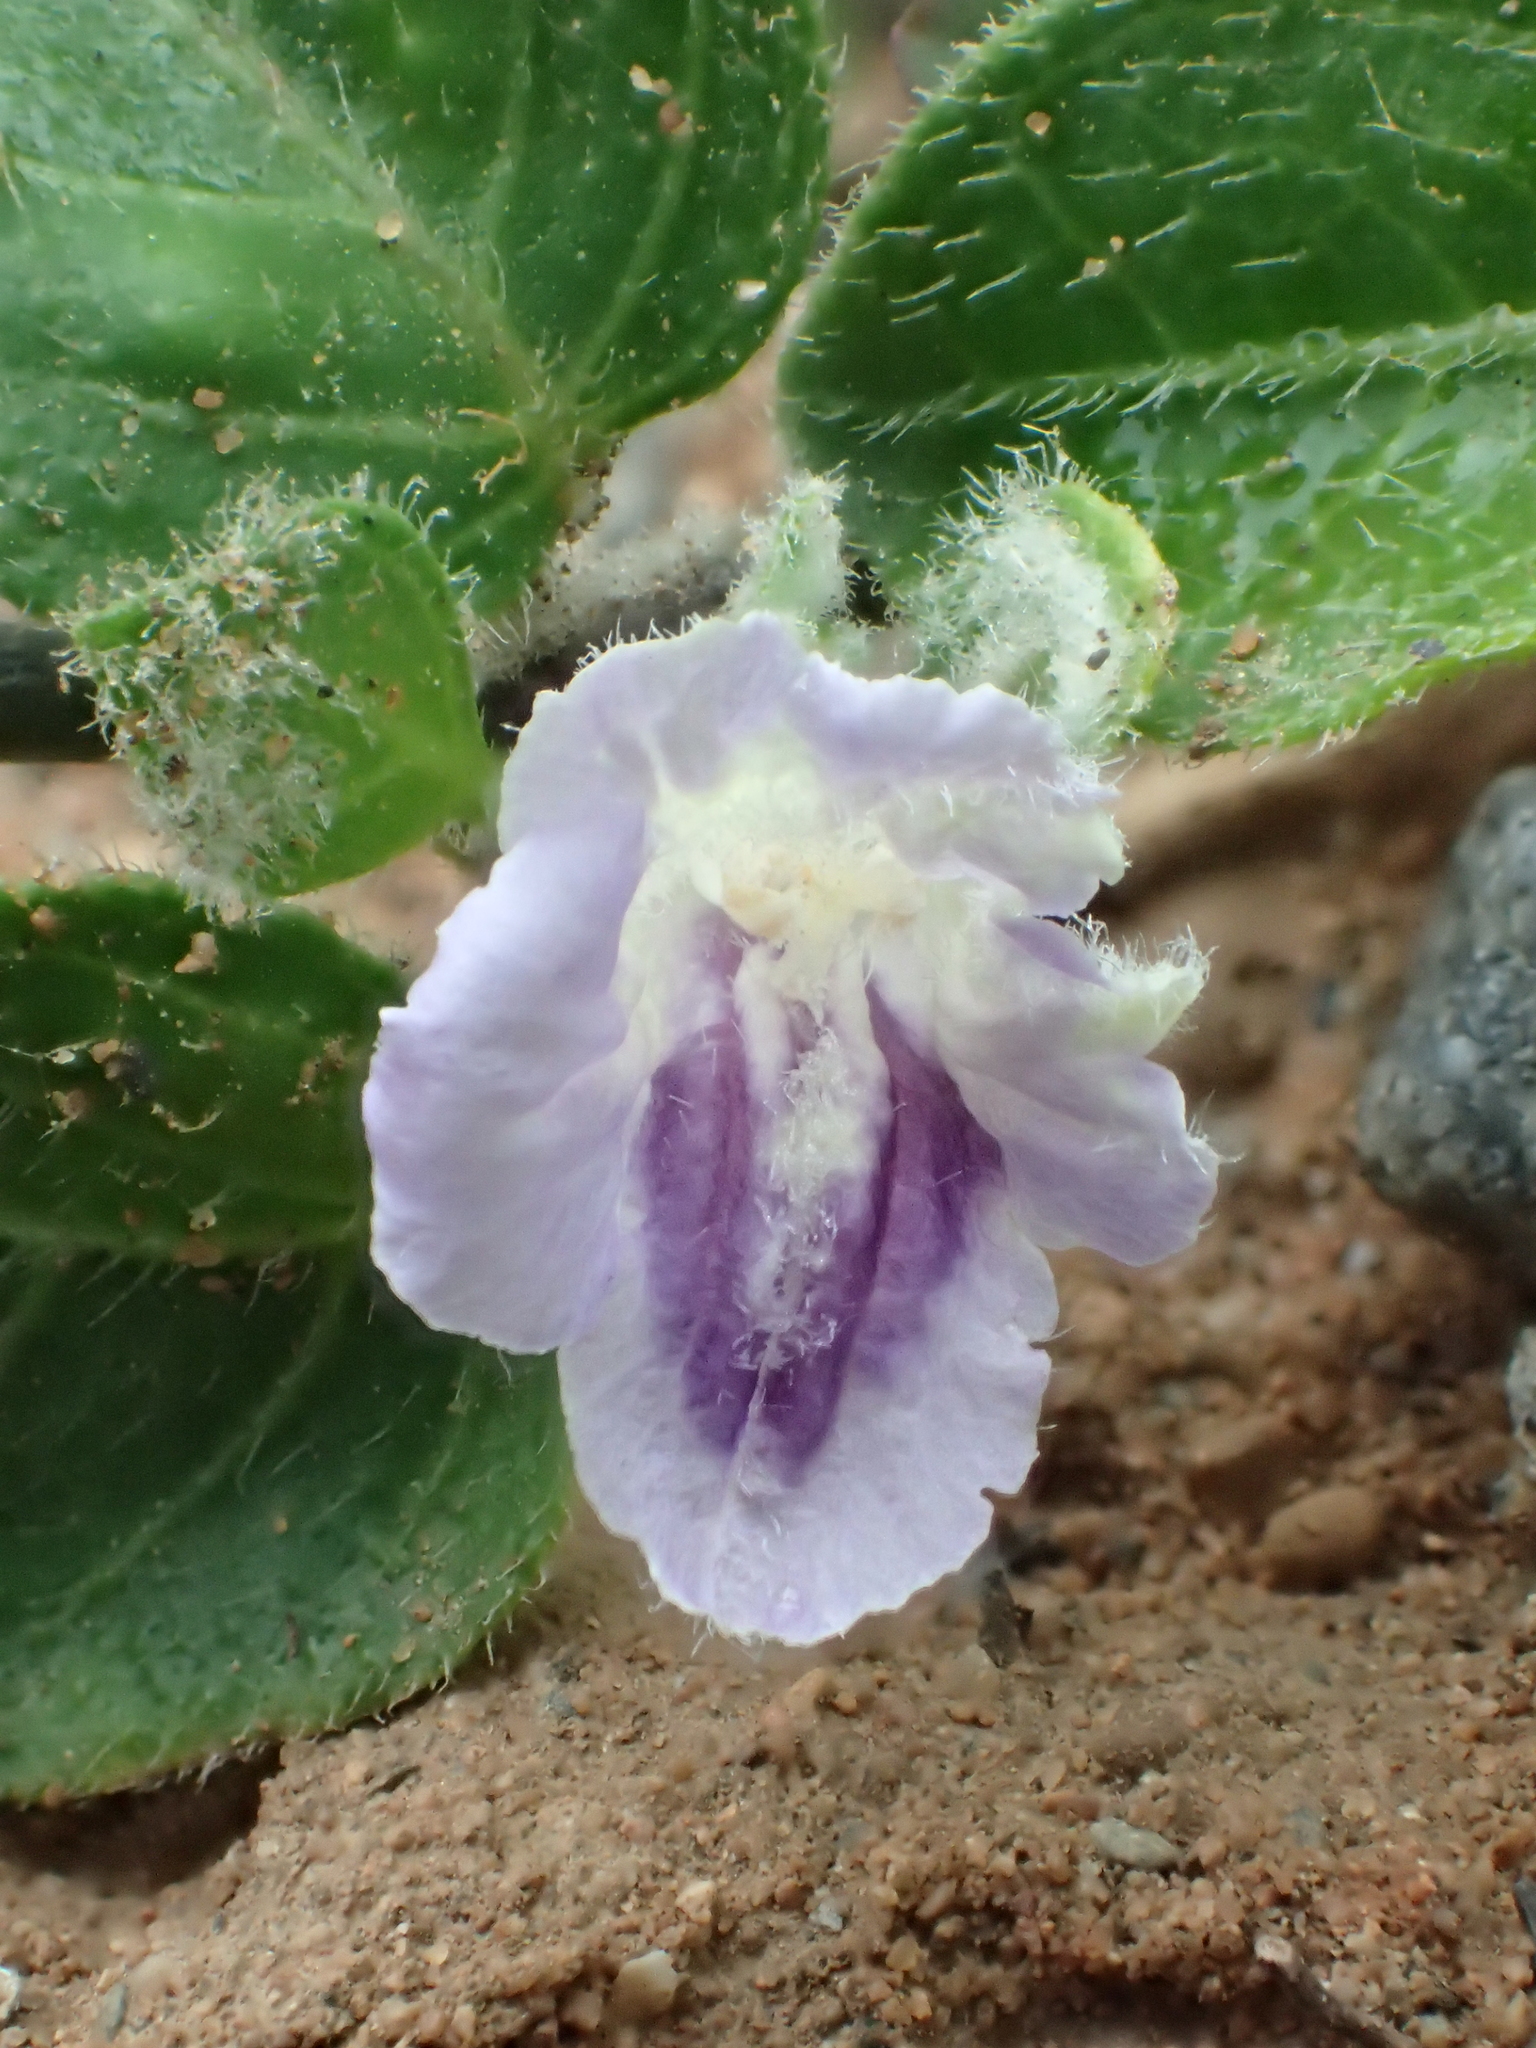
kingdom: Plantae
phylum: Tracheophyta
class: Magnoliopsida
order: Lamiales
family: Acanthaceae
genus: Ruellia
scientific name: Ruellia repens
